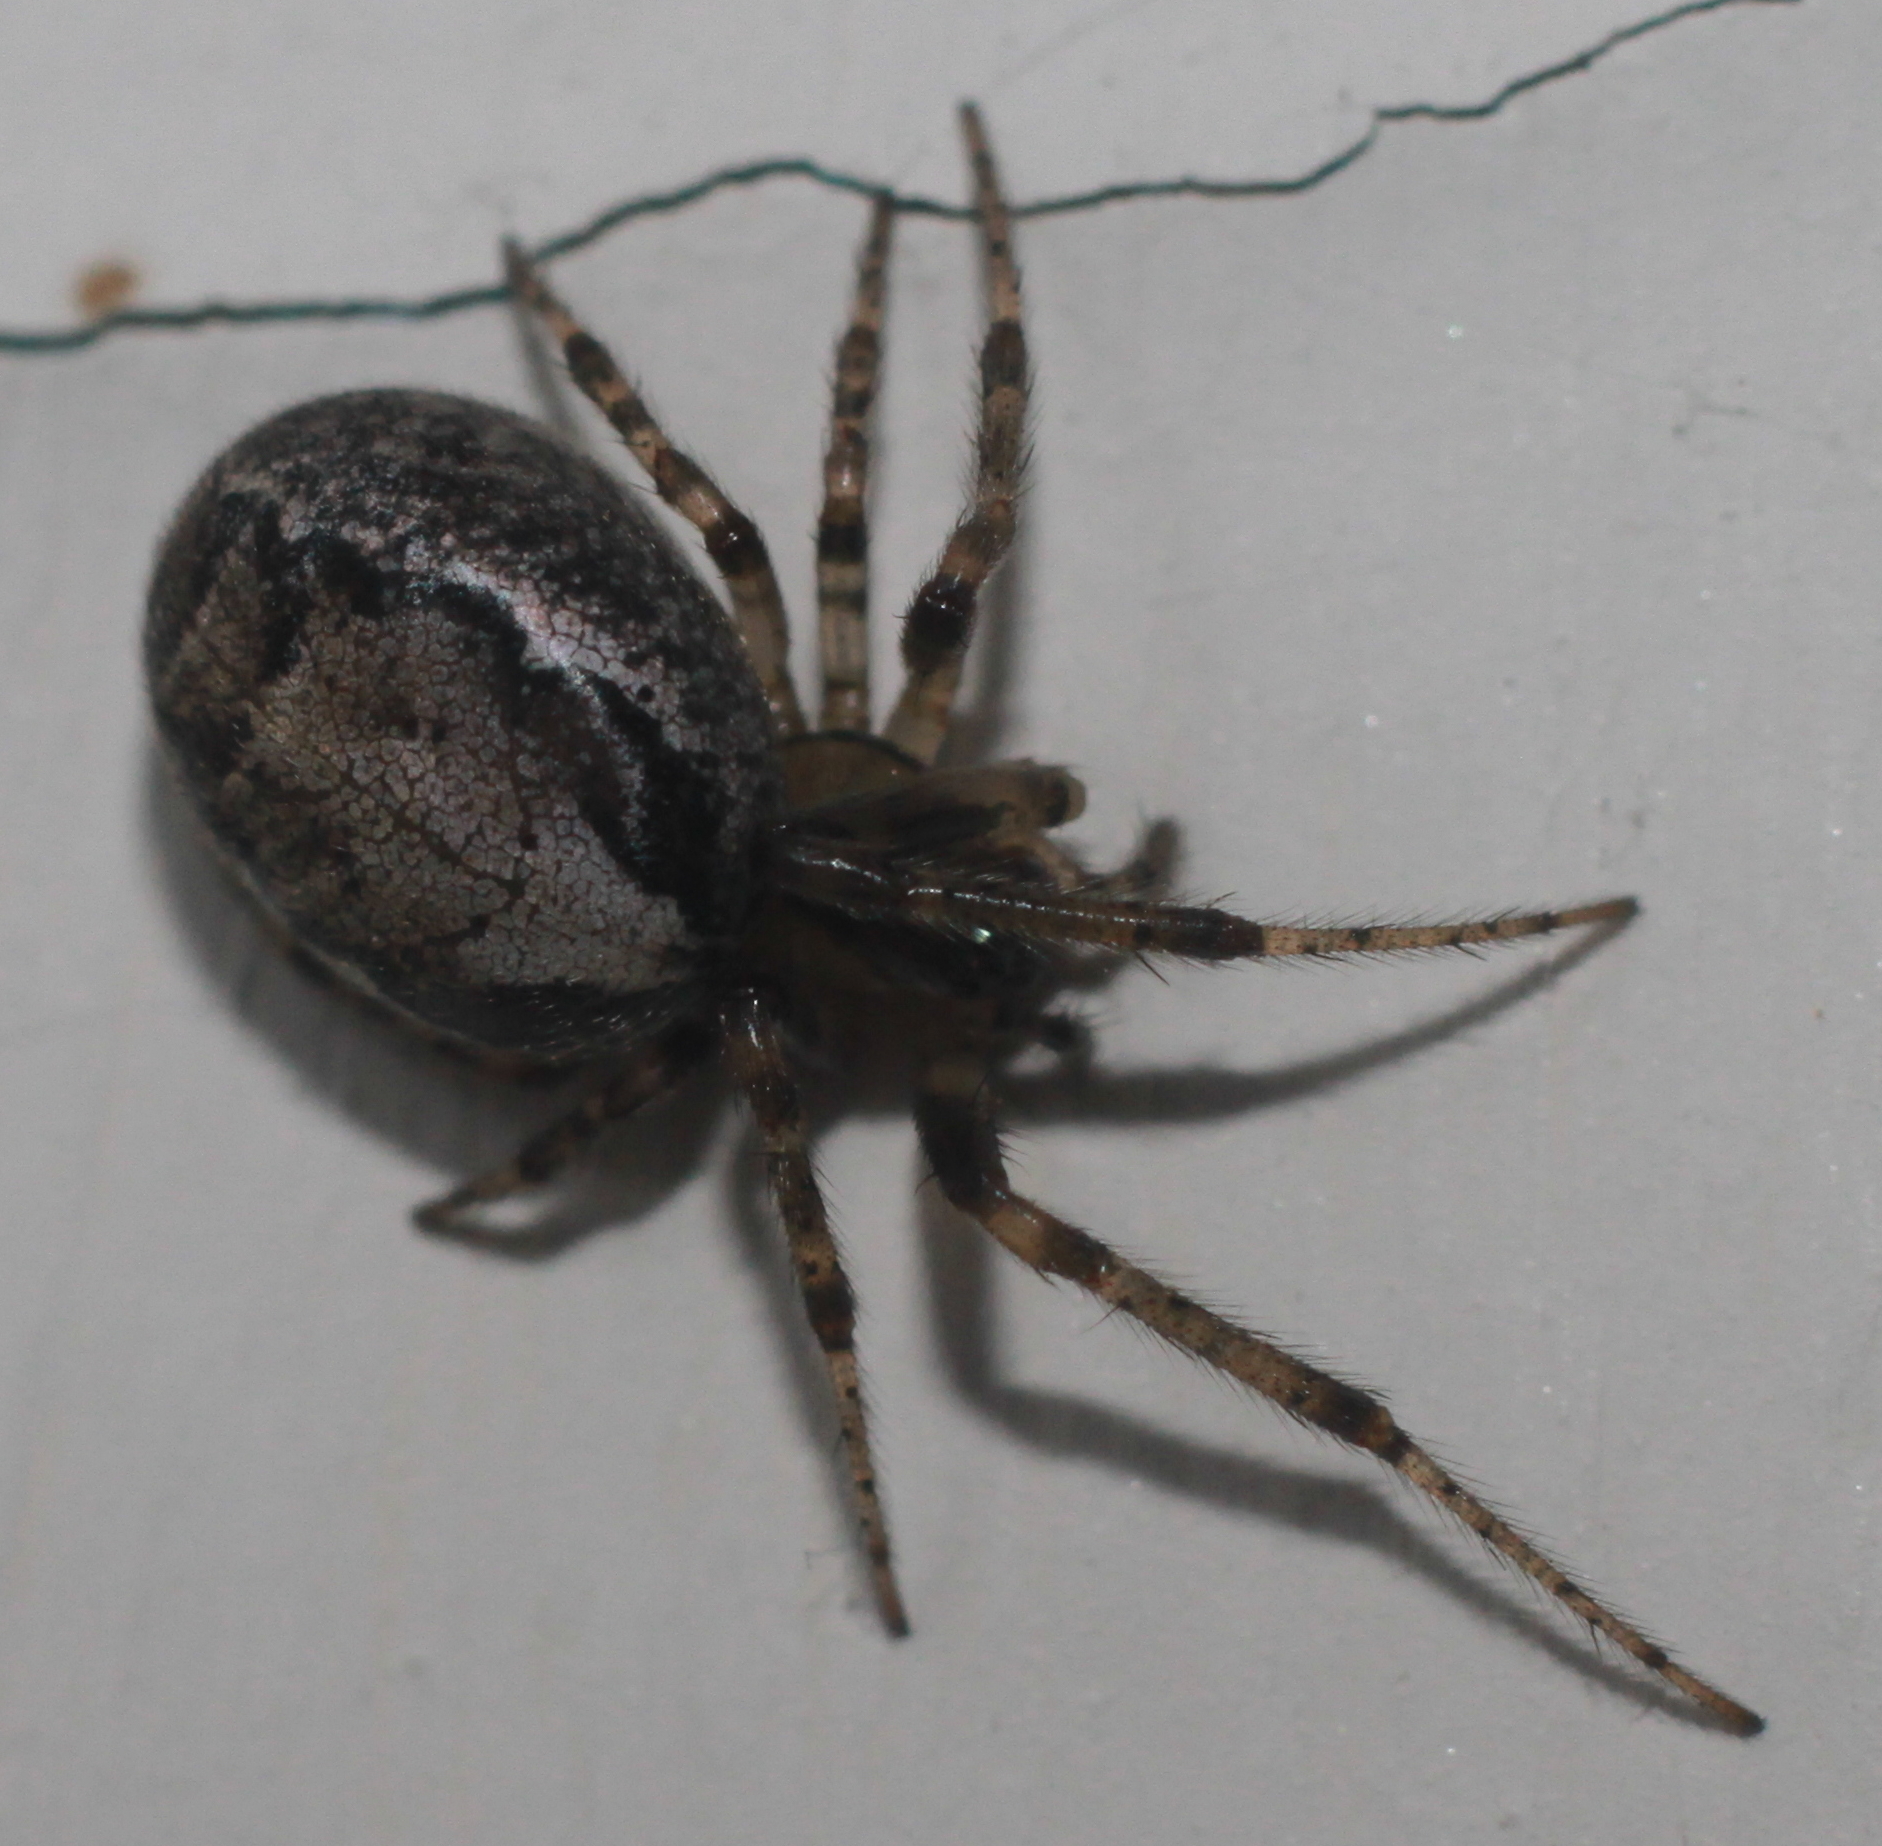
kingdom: Animalia
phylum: Arthropoda
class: Arachnida
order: Araneae
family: Araneidae
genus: Zygiella
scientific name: Zygiella x-notata
